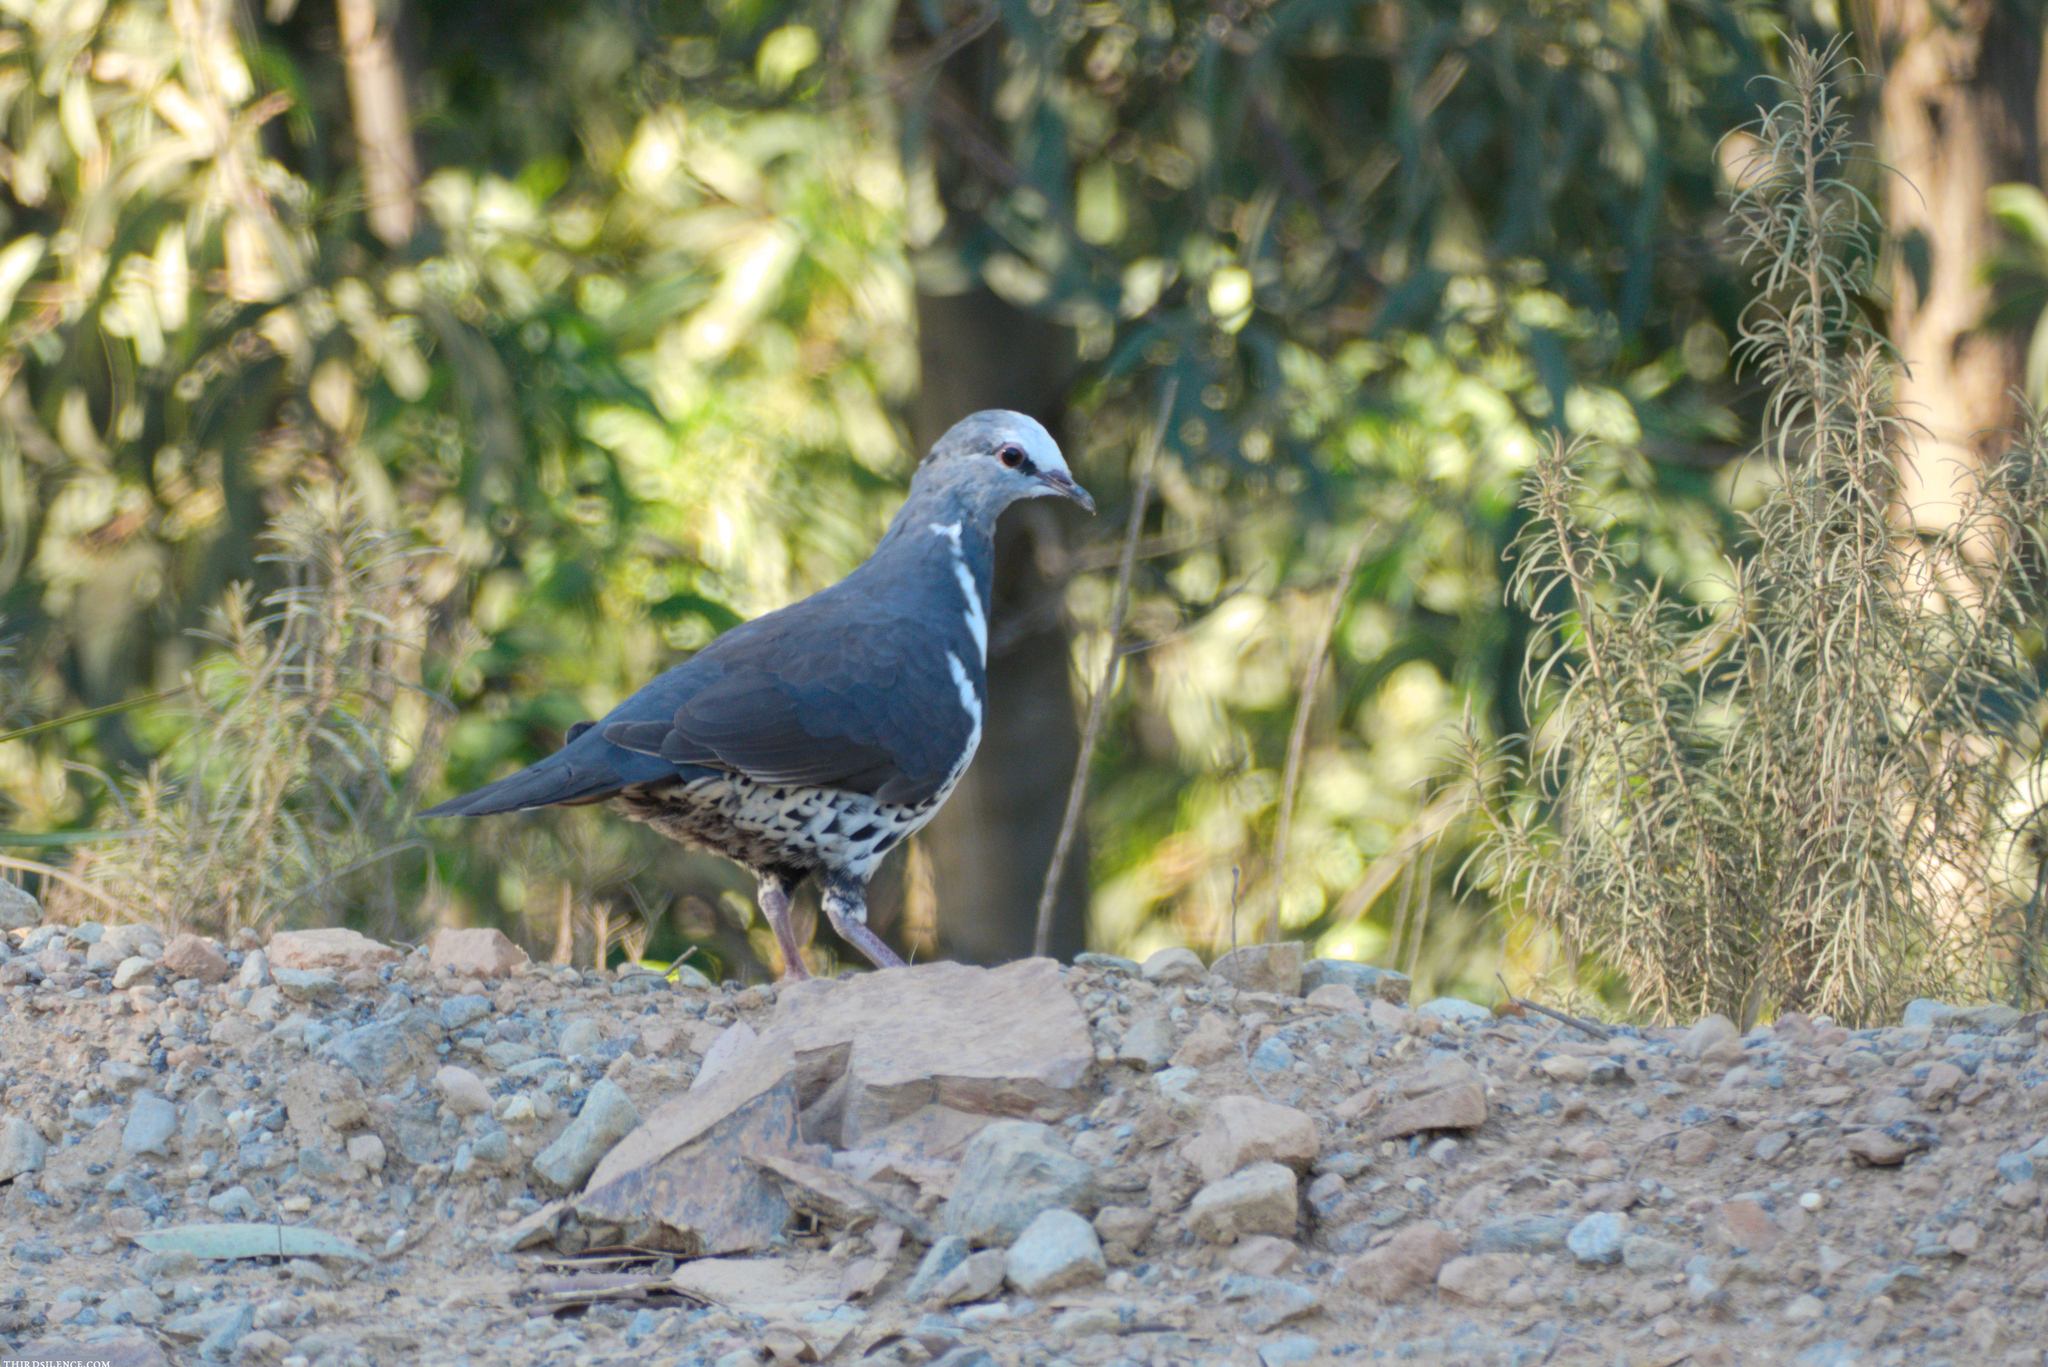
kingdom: Animalia
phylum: Chordata
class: Aves
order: Columbiformes
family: Columbidae
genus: Leucosarcia
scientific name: Leucosarcia melanoleuca
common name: Wonga pigeon
